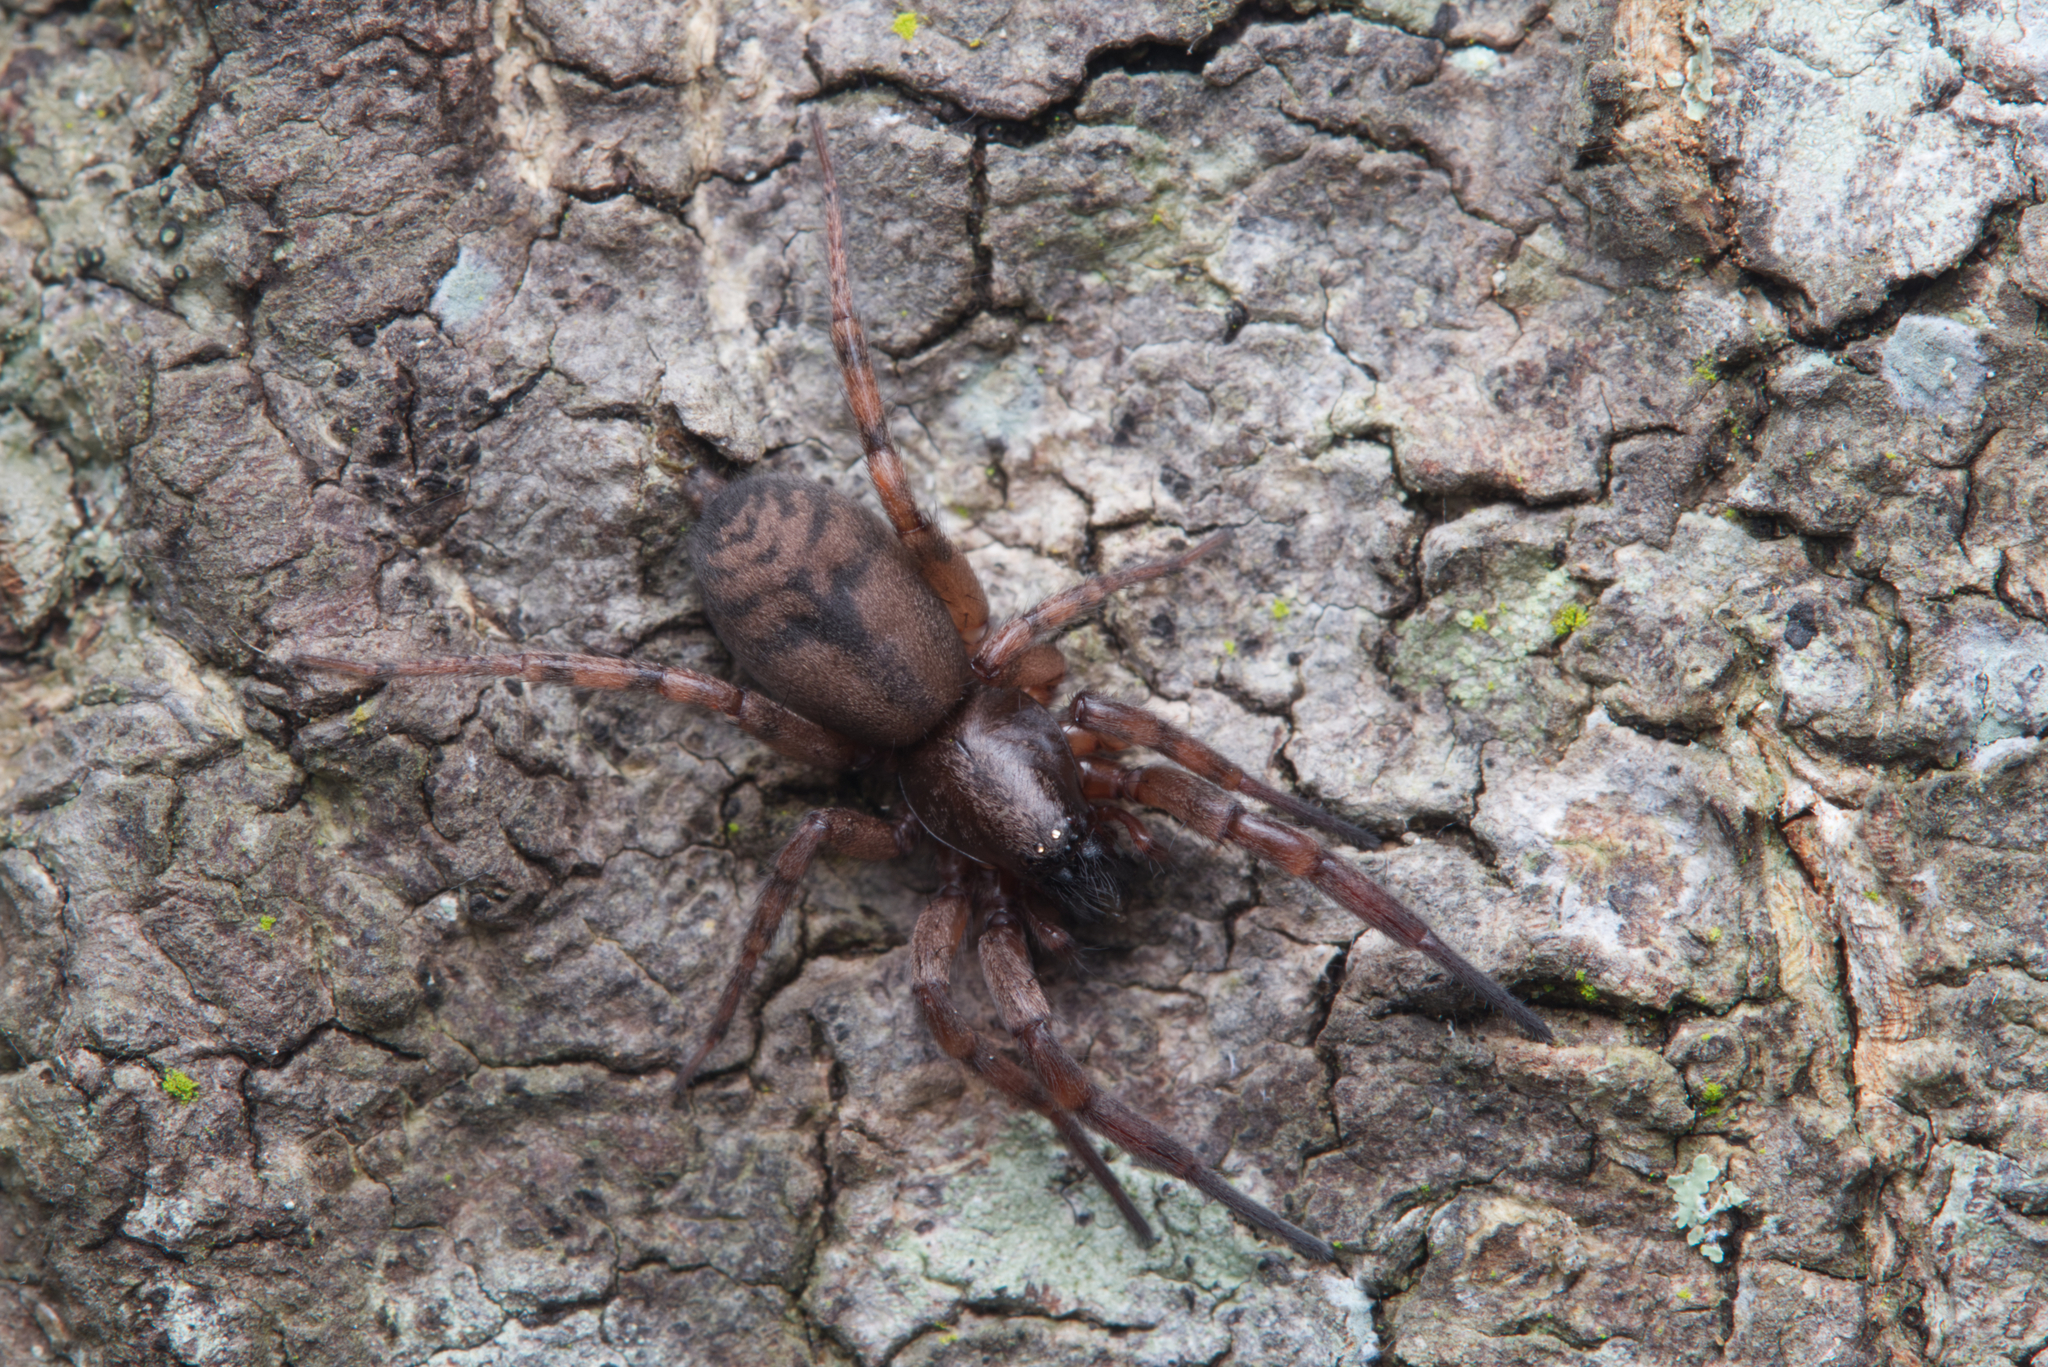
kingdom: Animalia
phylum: Arthropoda
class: Arachnida
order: Araneae
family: Gnaphosidae
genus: Intruda
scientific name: Intruda signata
